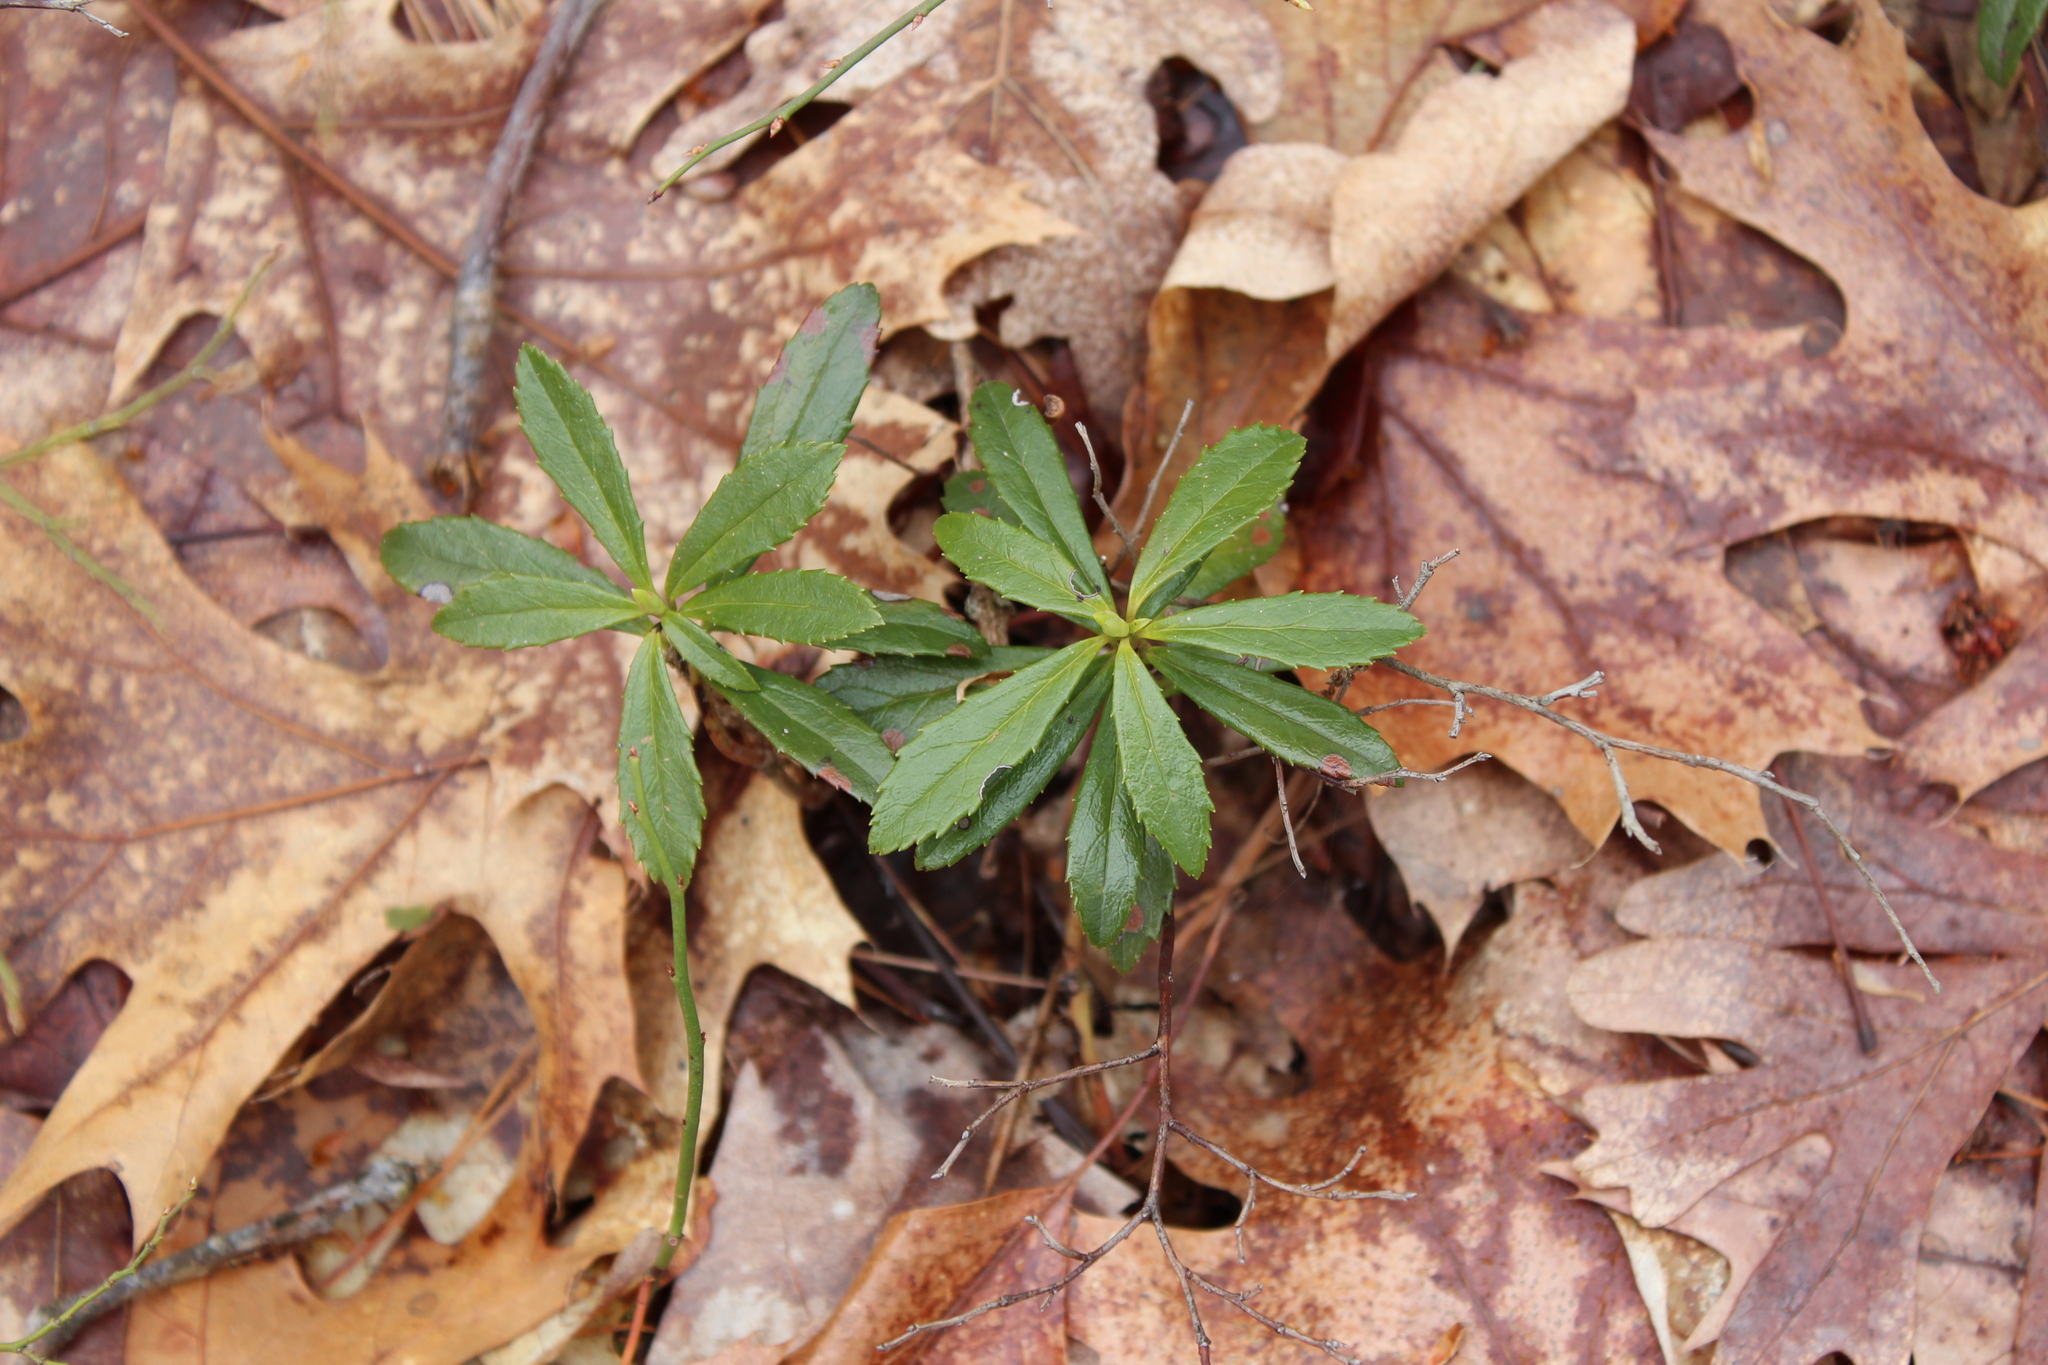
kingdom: Plantae
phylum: Tracheophyta
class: Magnoliopsida
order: Ericales
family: Ericaceae
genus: Chimaphila
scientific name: Chimaphila umbellata
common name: Pipsissewa
